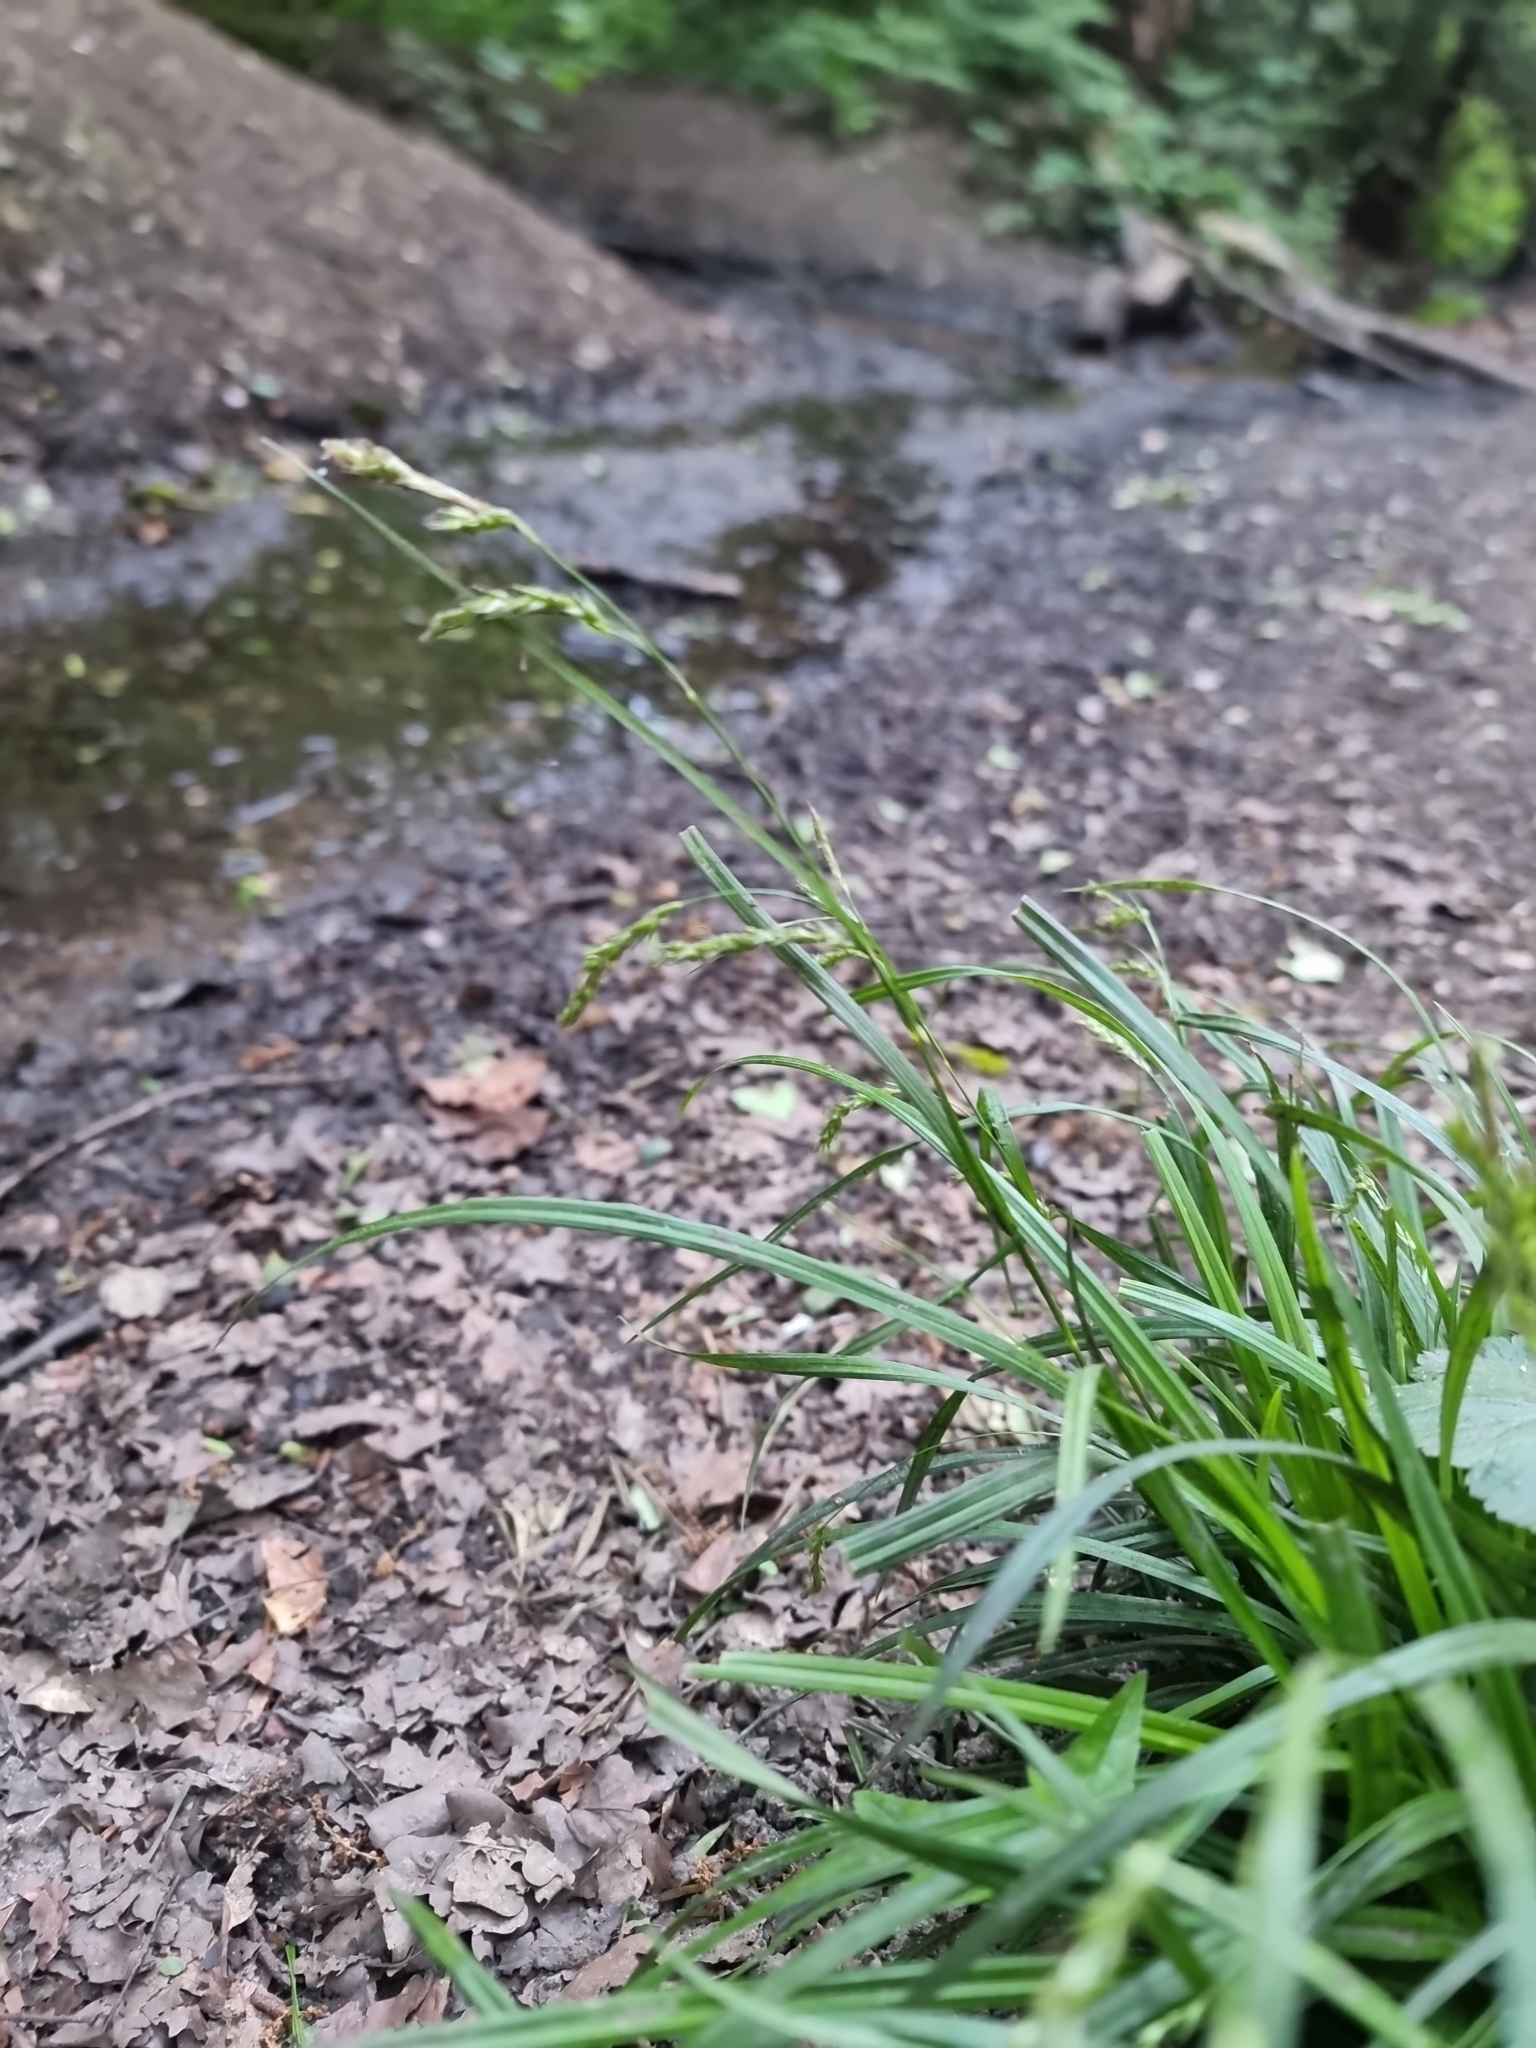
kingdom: Plantae
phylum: Tracheophyta
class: Liliopsida
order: Poales
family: Cyperaceae
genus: Carex
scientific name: Carex sylvatica
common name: Wood-sedge
